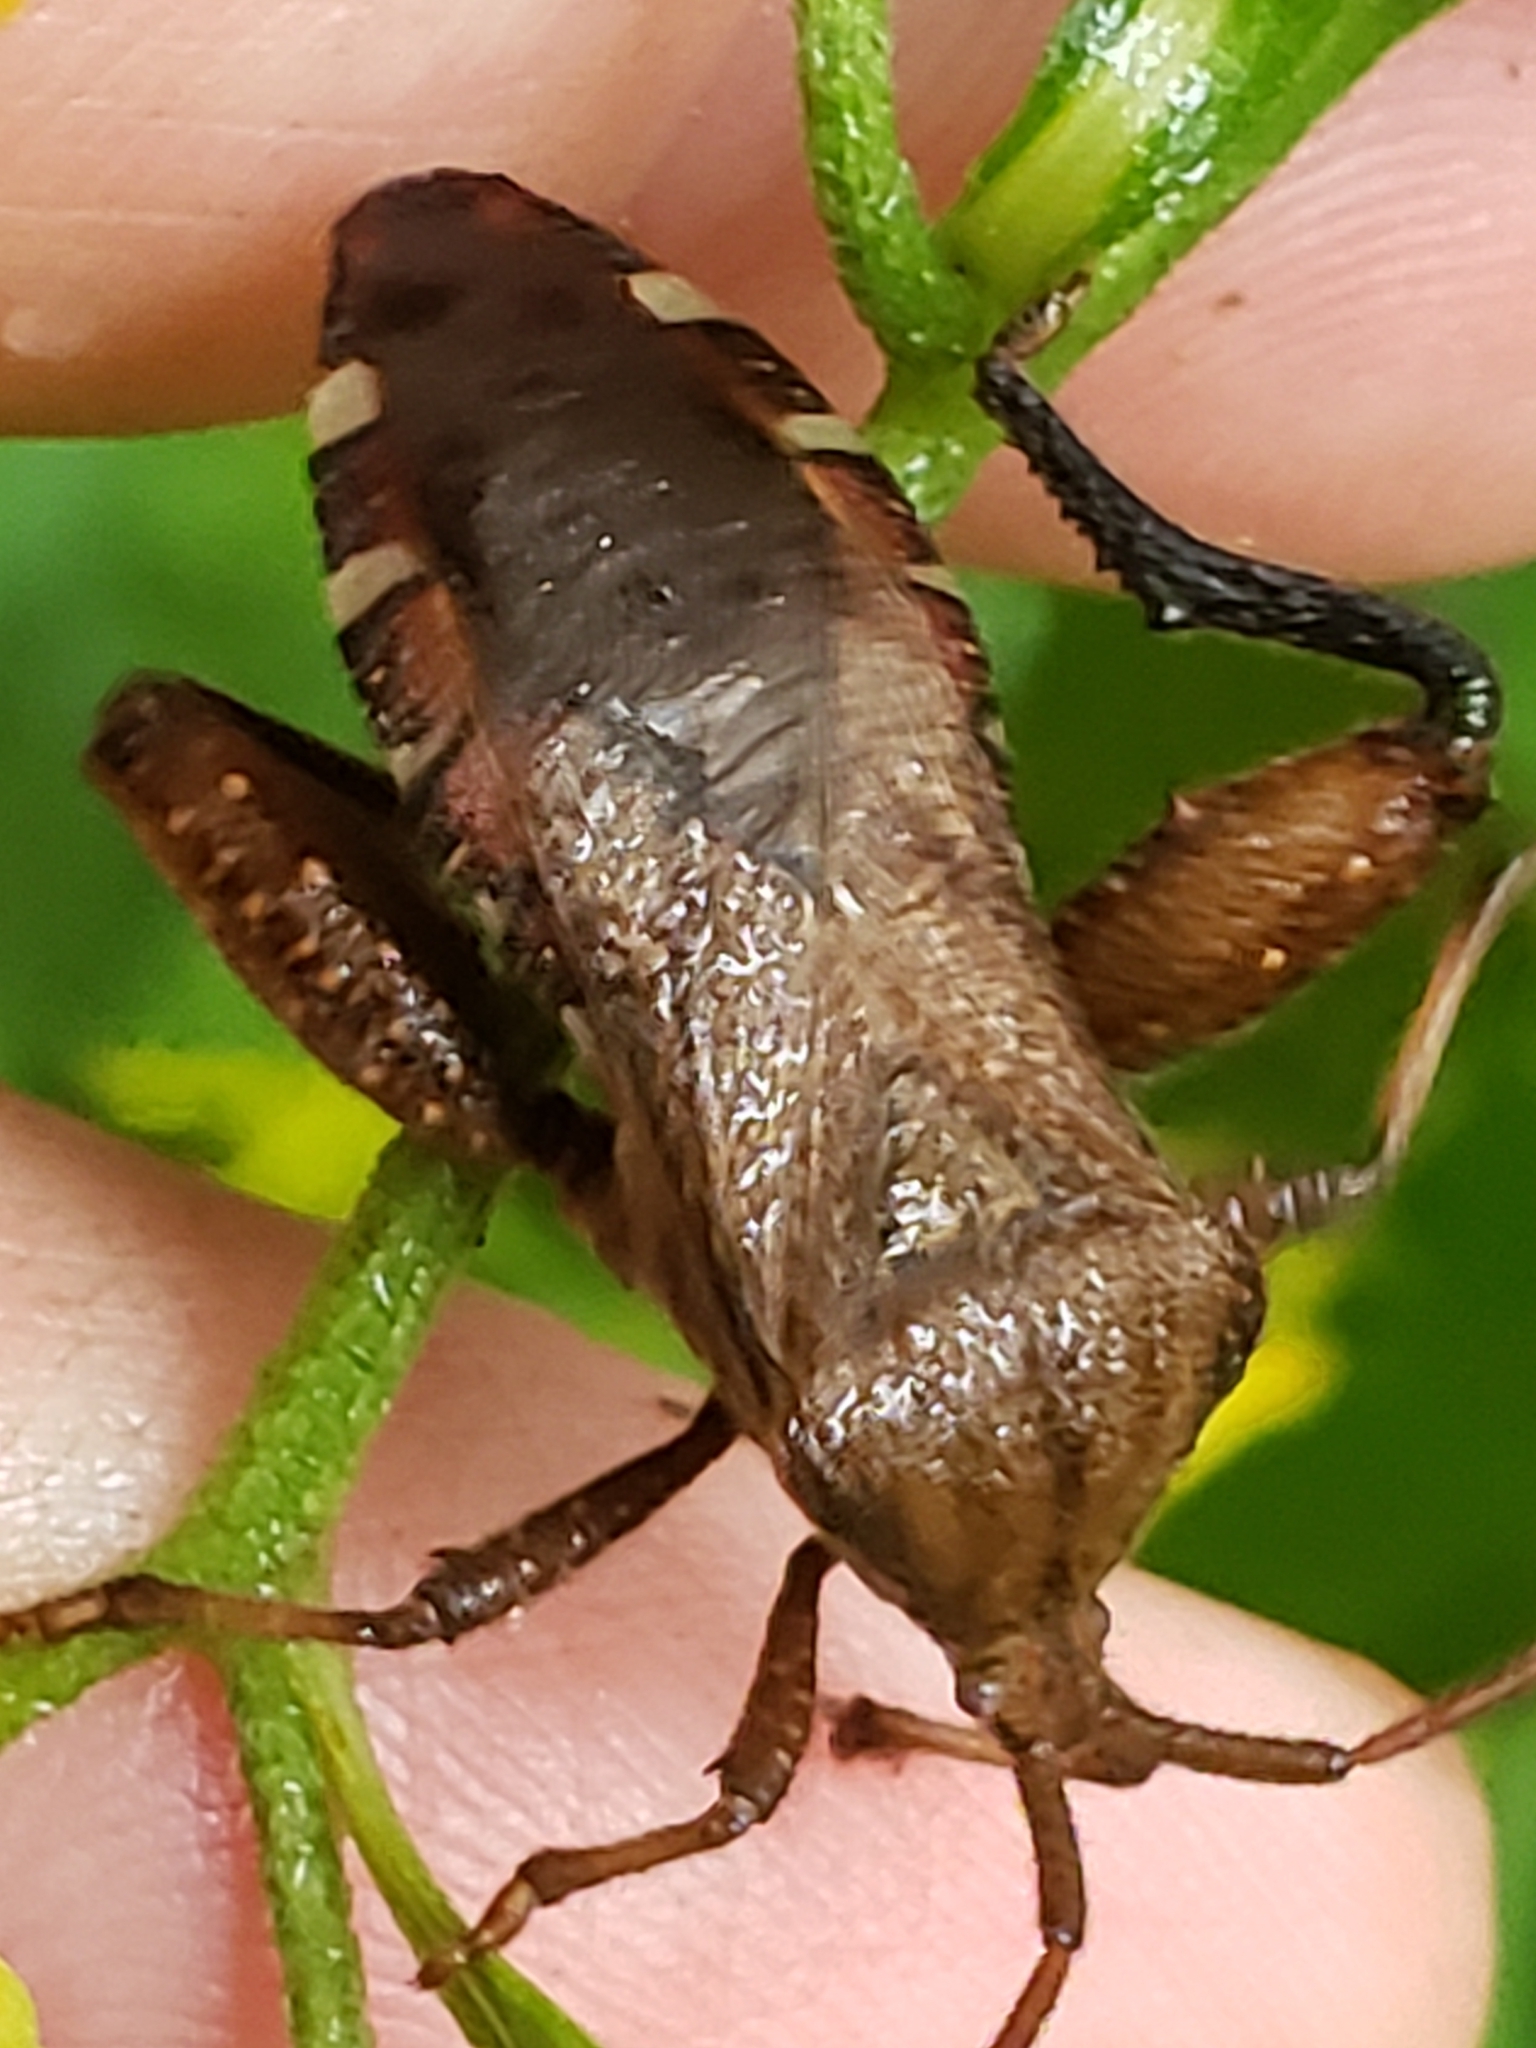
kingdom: Animalia
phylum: Arthropoda
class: Insecta
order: Hemiptera
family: Coreidae
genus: Piezogaster
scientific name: Piezogaster calcarator
